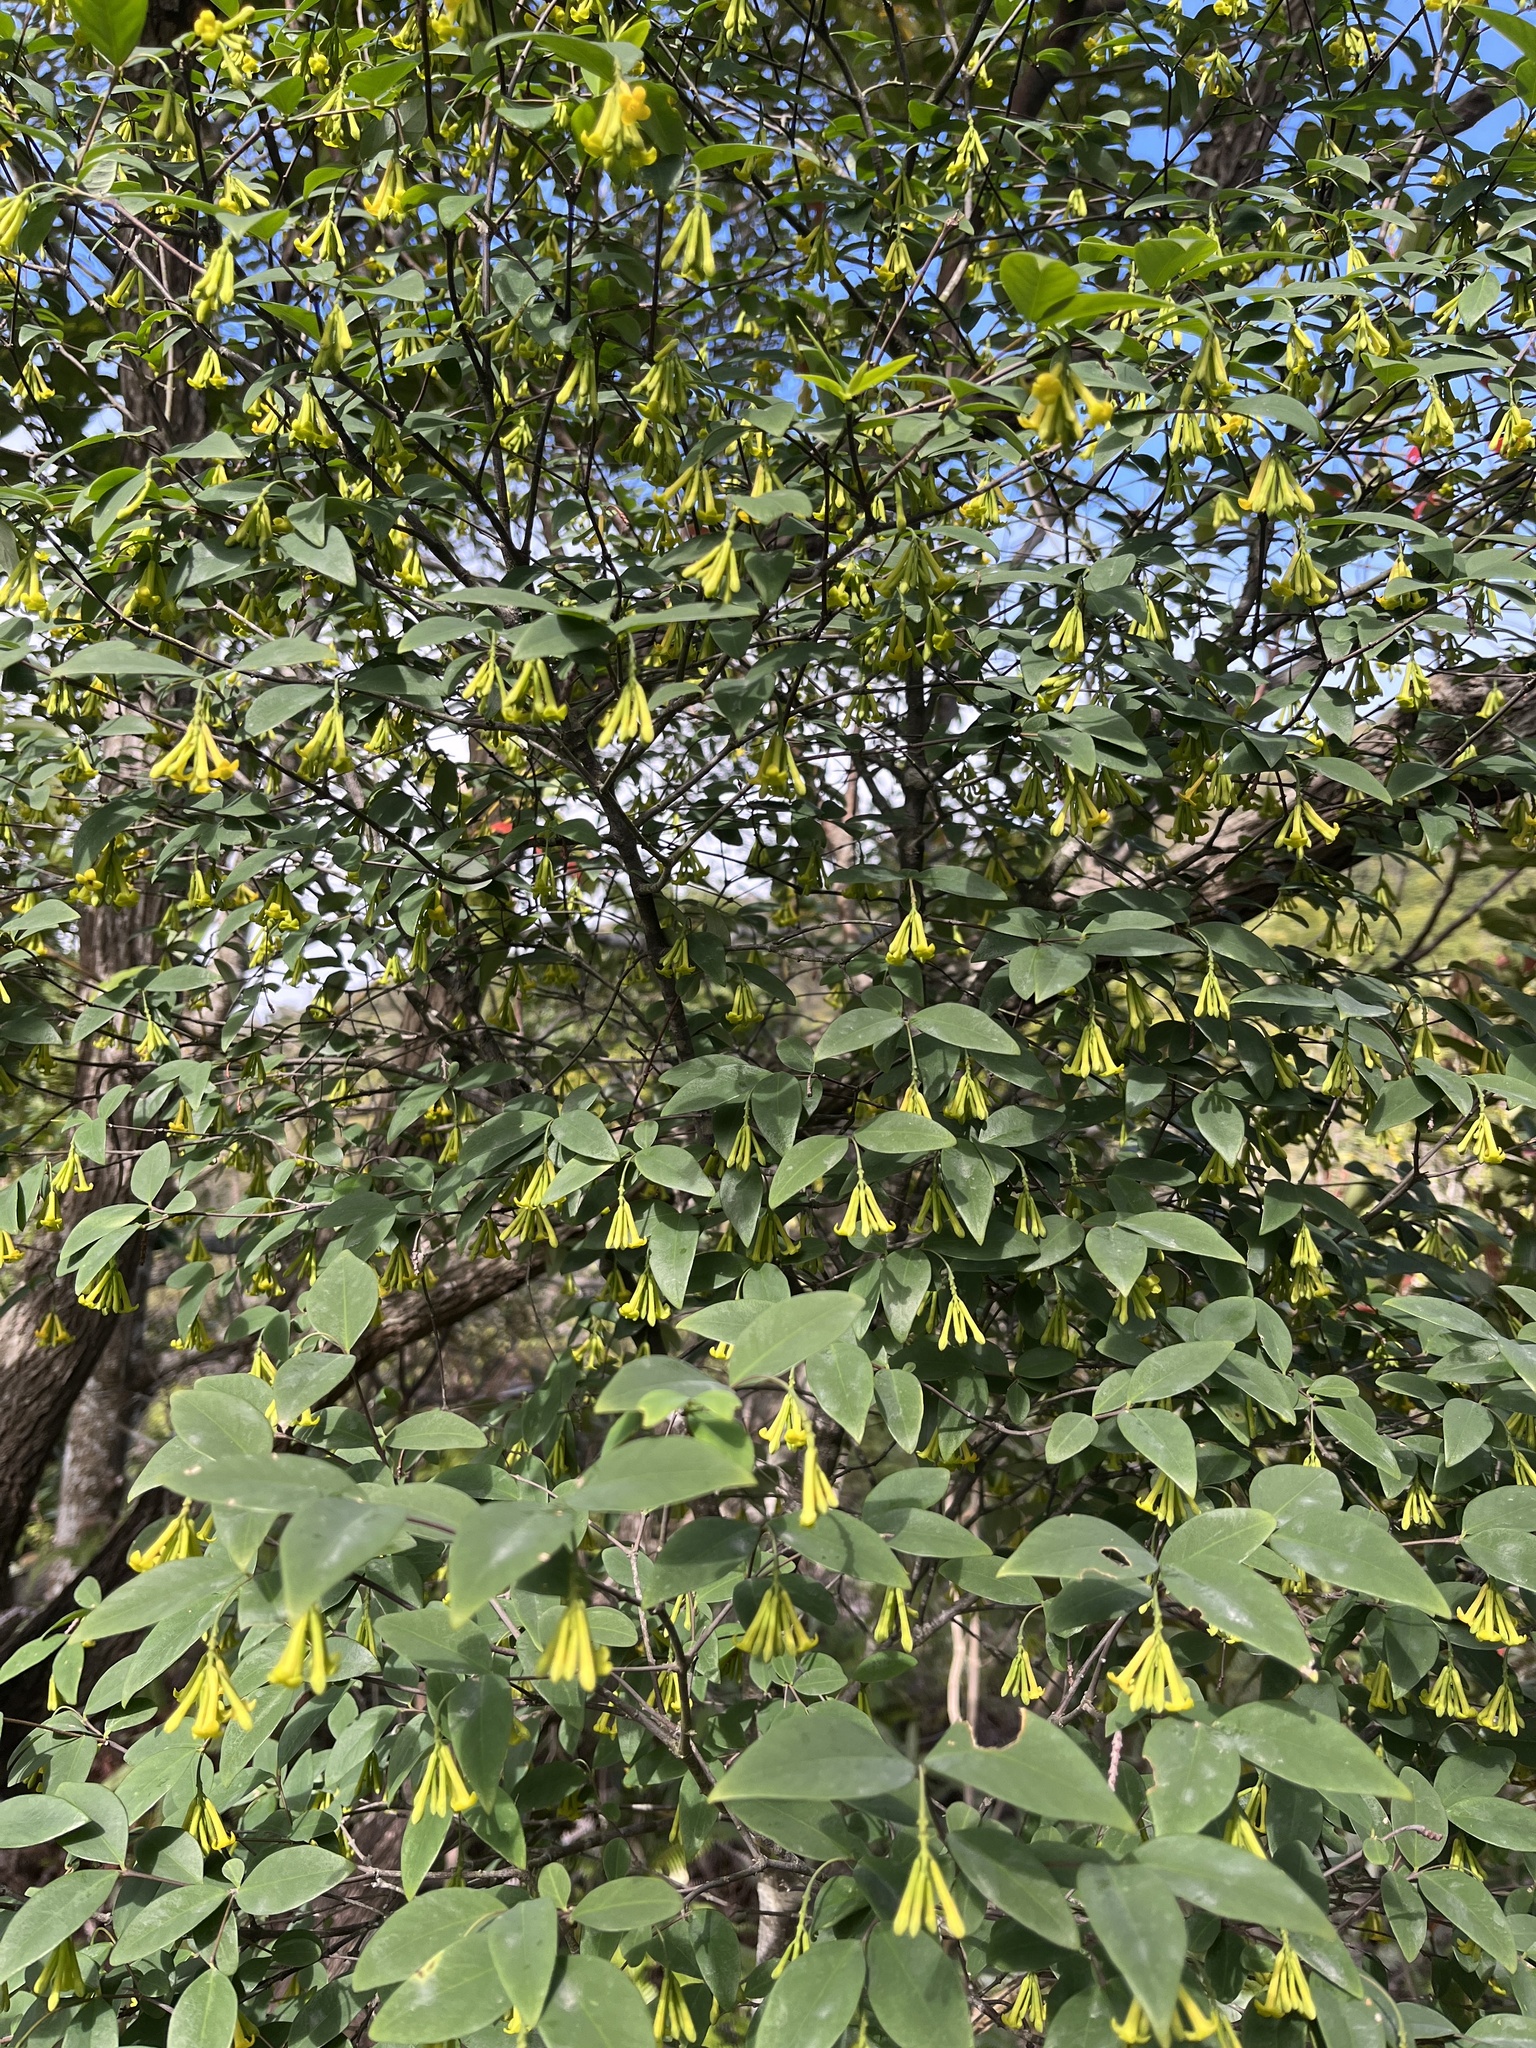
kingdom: Plantae
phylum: Tracheophyta
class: Magnoliopsida
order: Malvales
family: Thymelaeaceae
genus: Wikstroemia
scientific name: Wikstroemia nutans
